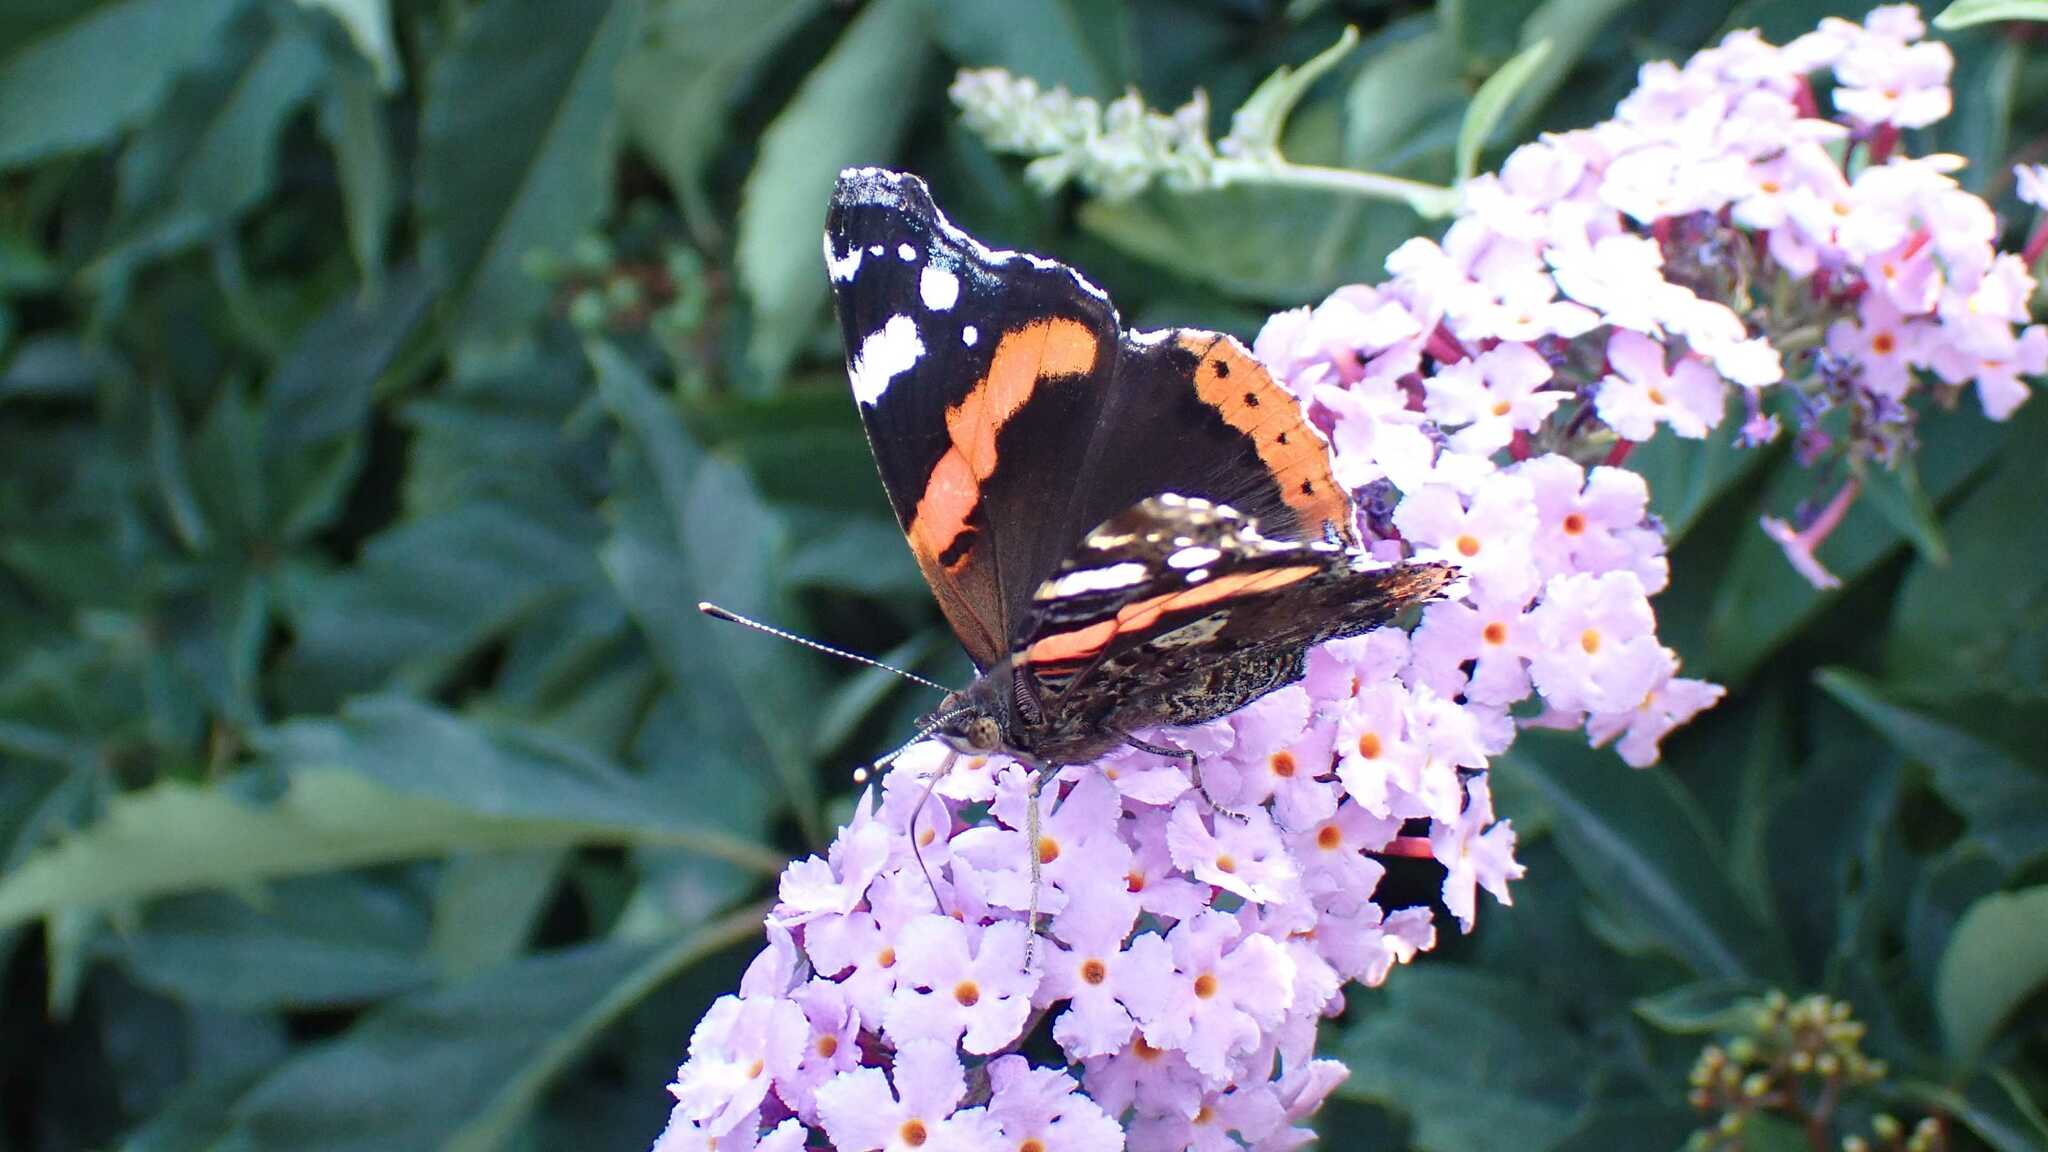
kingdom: Animalia
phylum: Arthropoda
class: Insecta
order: Lepidoptera
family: Nymphalidae
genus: Vanessa
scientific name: Vanessa atalanta
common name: Red admiral
